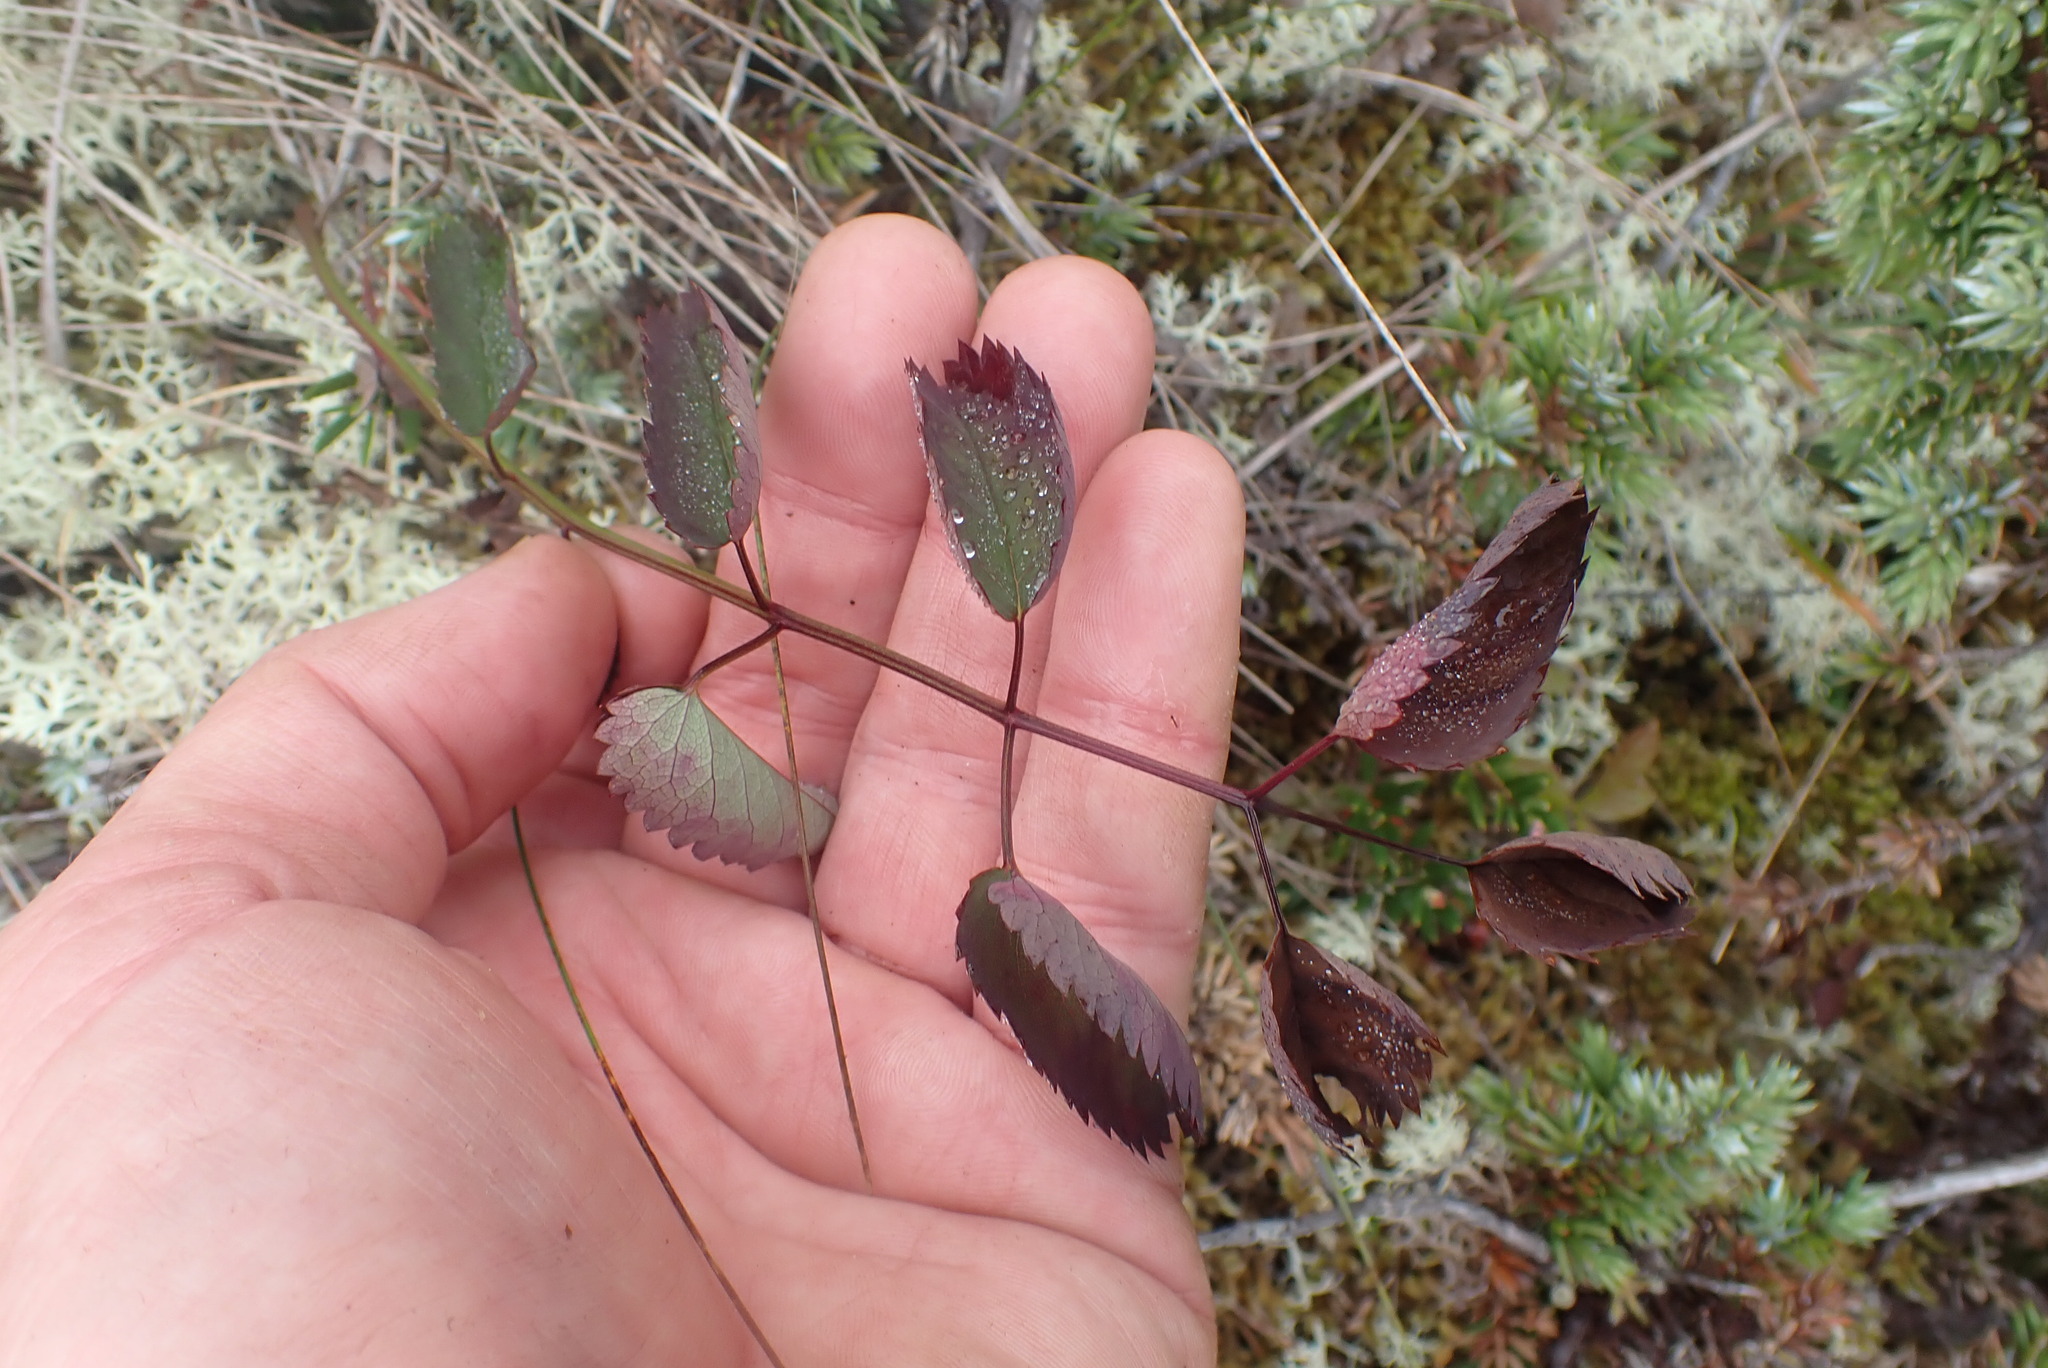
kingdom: Plantae
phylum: Tracheophyta
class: Magnoliopsida
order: Rosales
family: Rosaceae
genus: Sanguisorba
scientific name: Sanguisorba officinalis
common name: Great burnet
